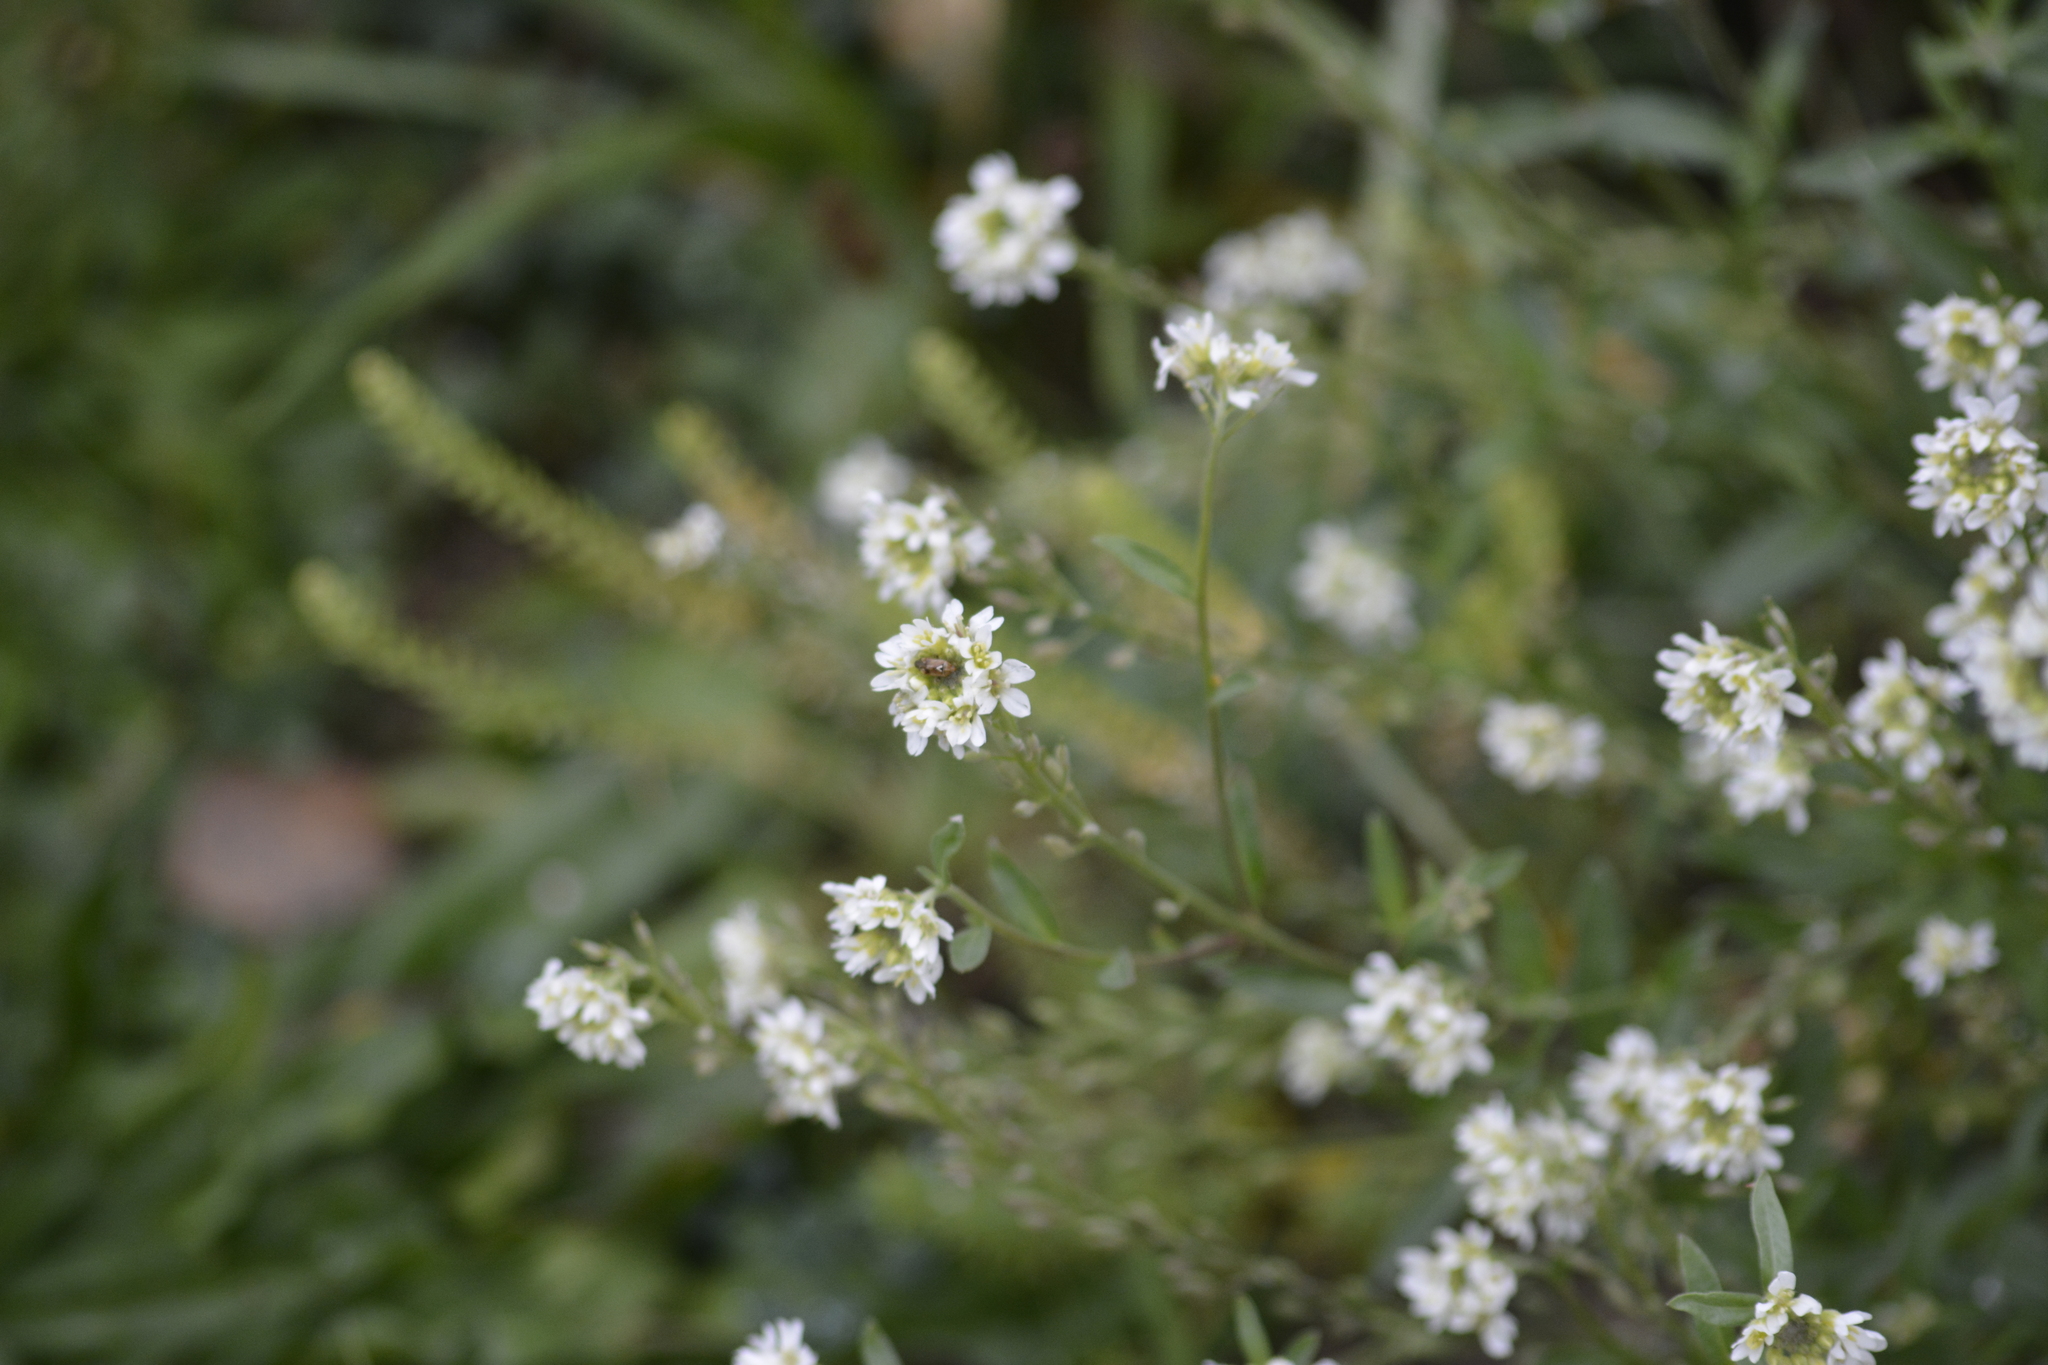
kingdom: Plantae
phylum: Tracheophyta
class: Magnoliopsida
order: Brassicales
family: Brassicaceae
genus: Berteroa
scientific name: Berteroa incana
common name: Hoary alison
